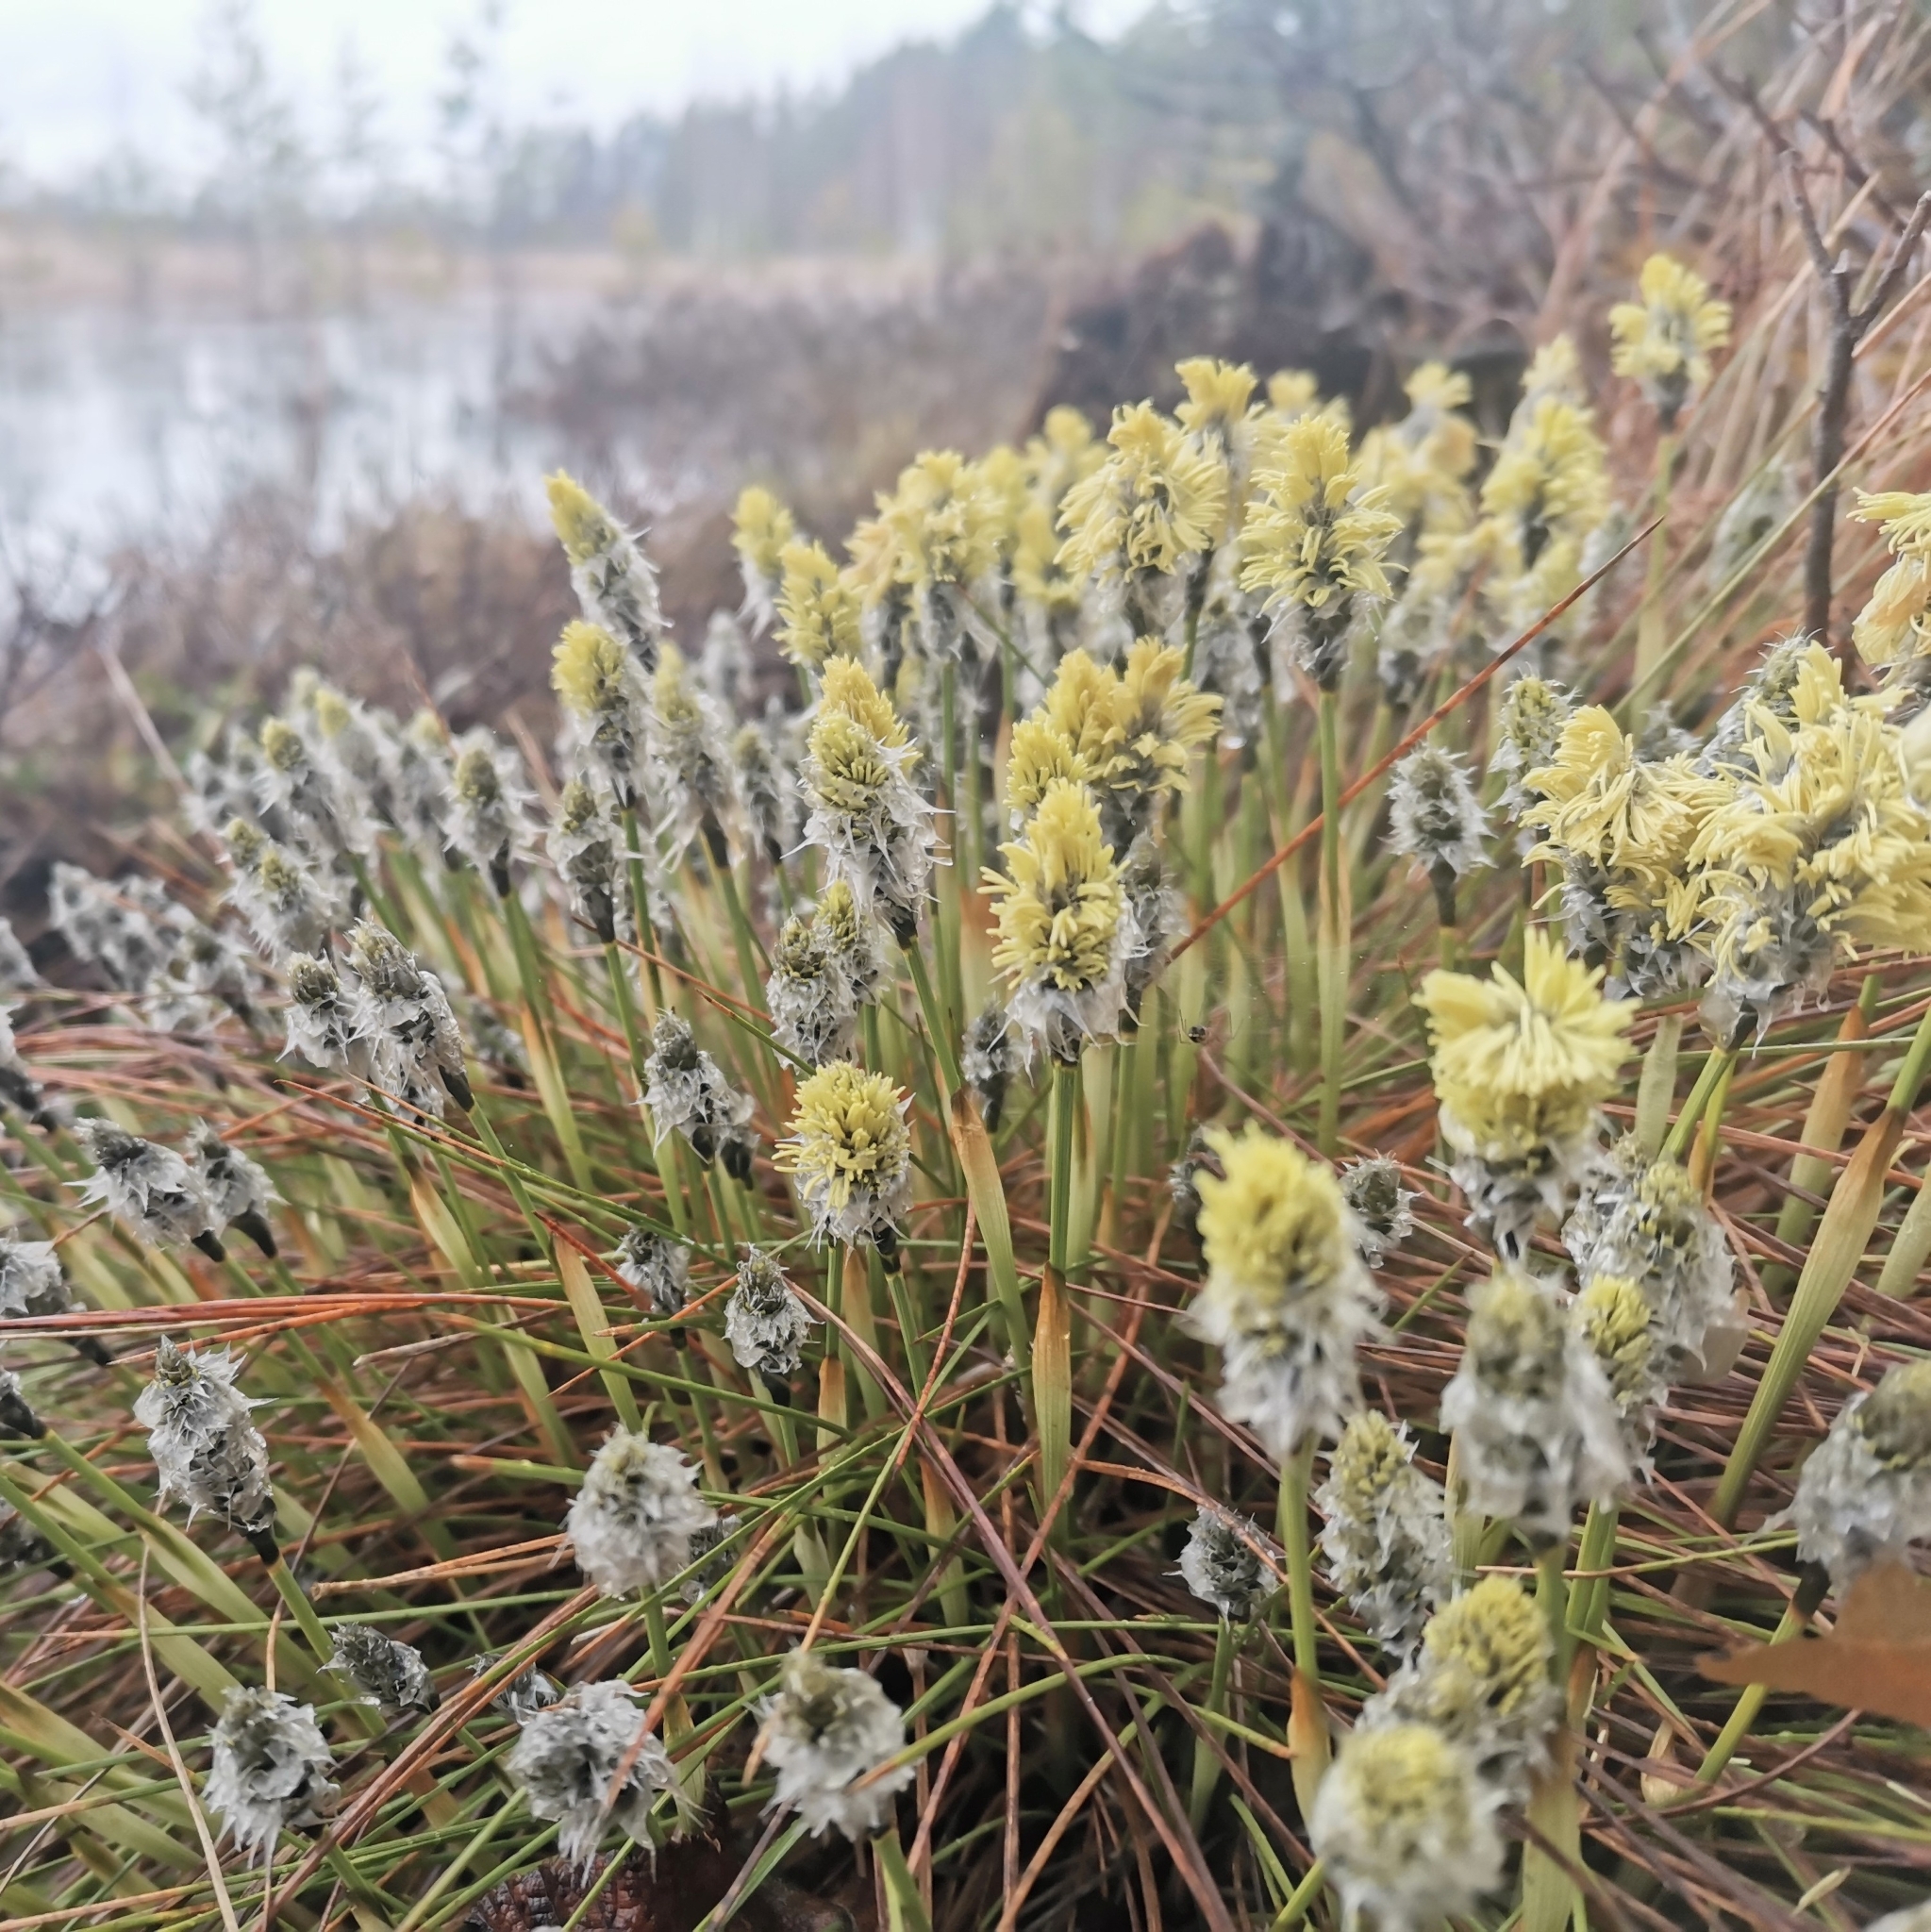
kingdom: Plantae
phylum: Tracheophyta
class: Liliopsida
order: Poales
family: Cyperaceae
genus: Eriophorum
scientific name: Eriophorum vaginatum
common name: Hare's-tail cottongrass
